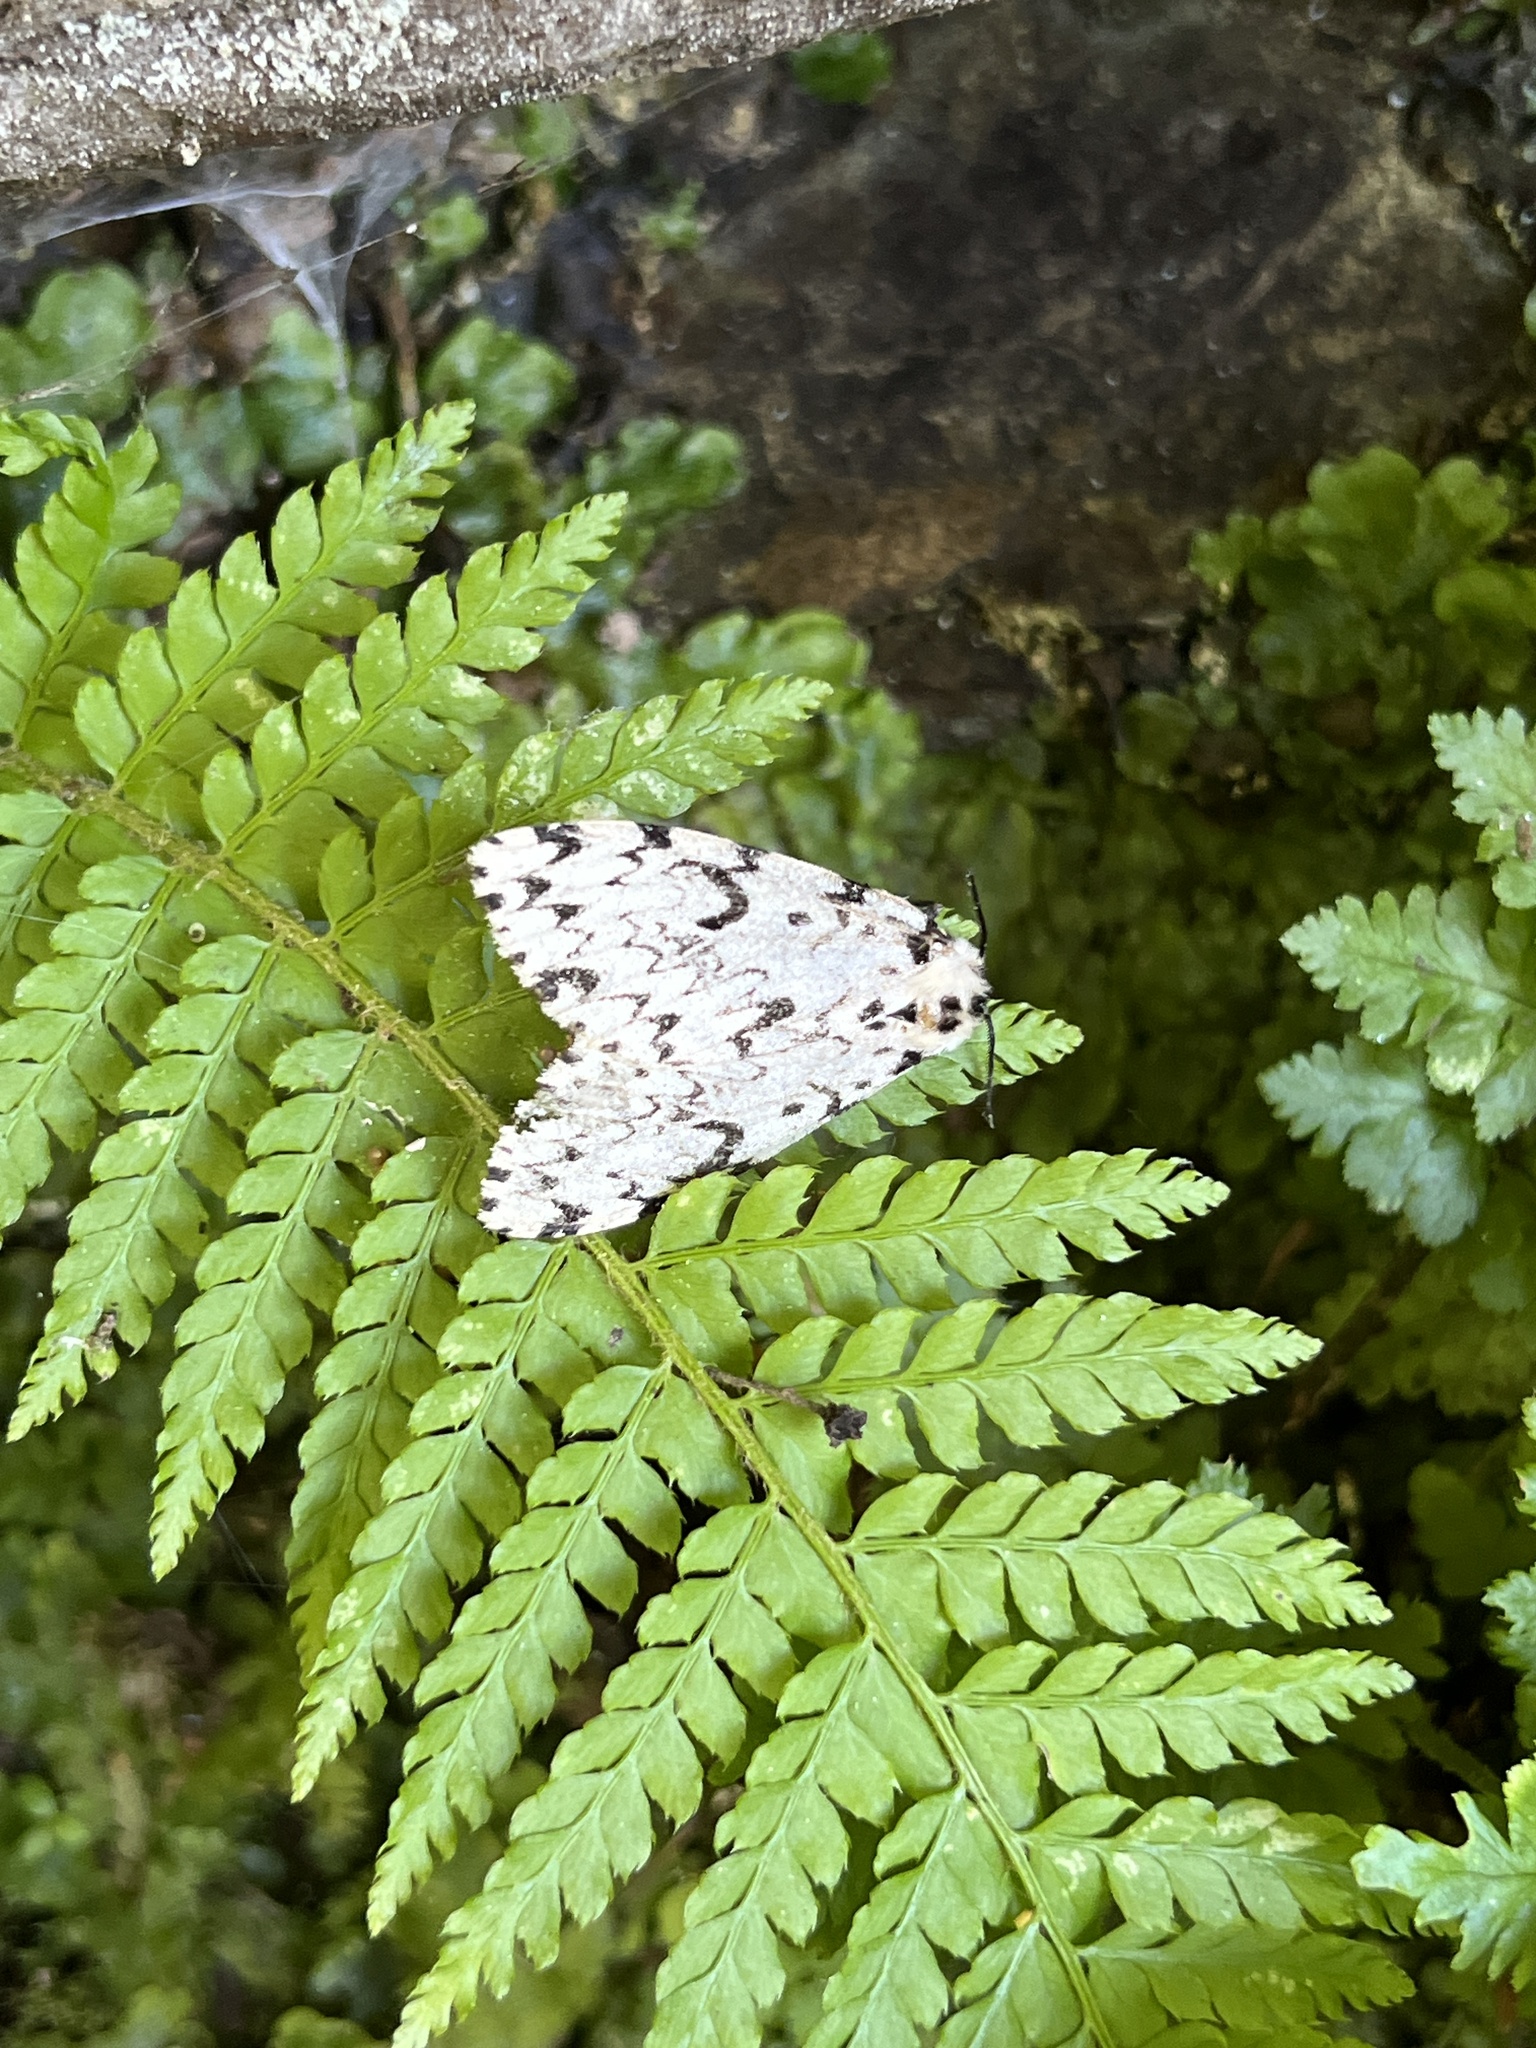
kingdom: Animalia
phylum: Arthropoda
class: Insecta
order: Lepidoptera
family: Erebidae
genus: Lymantria
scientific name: Lymantria monacha
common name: Black arches
